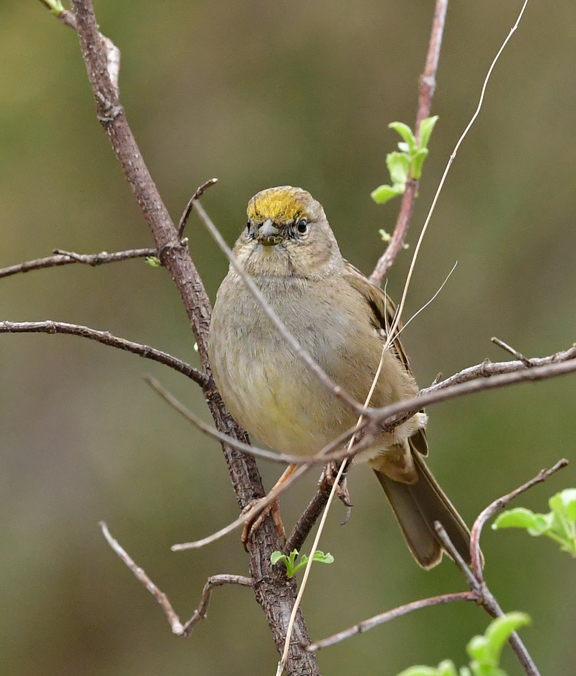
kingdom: Animalia
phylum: Chordata
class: Aves
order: Passeriformes
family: Passerellidae
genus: Zonotrichia
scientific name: Zonotrichia atricapilla
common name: Golden-crowned sparrow
